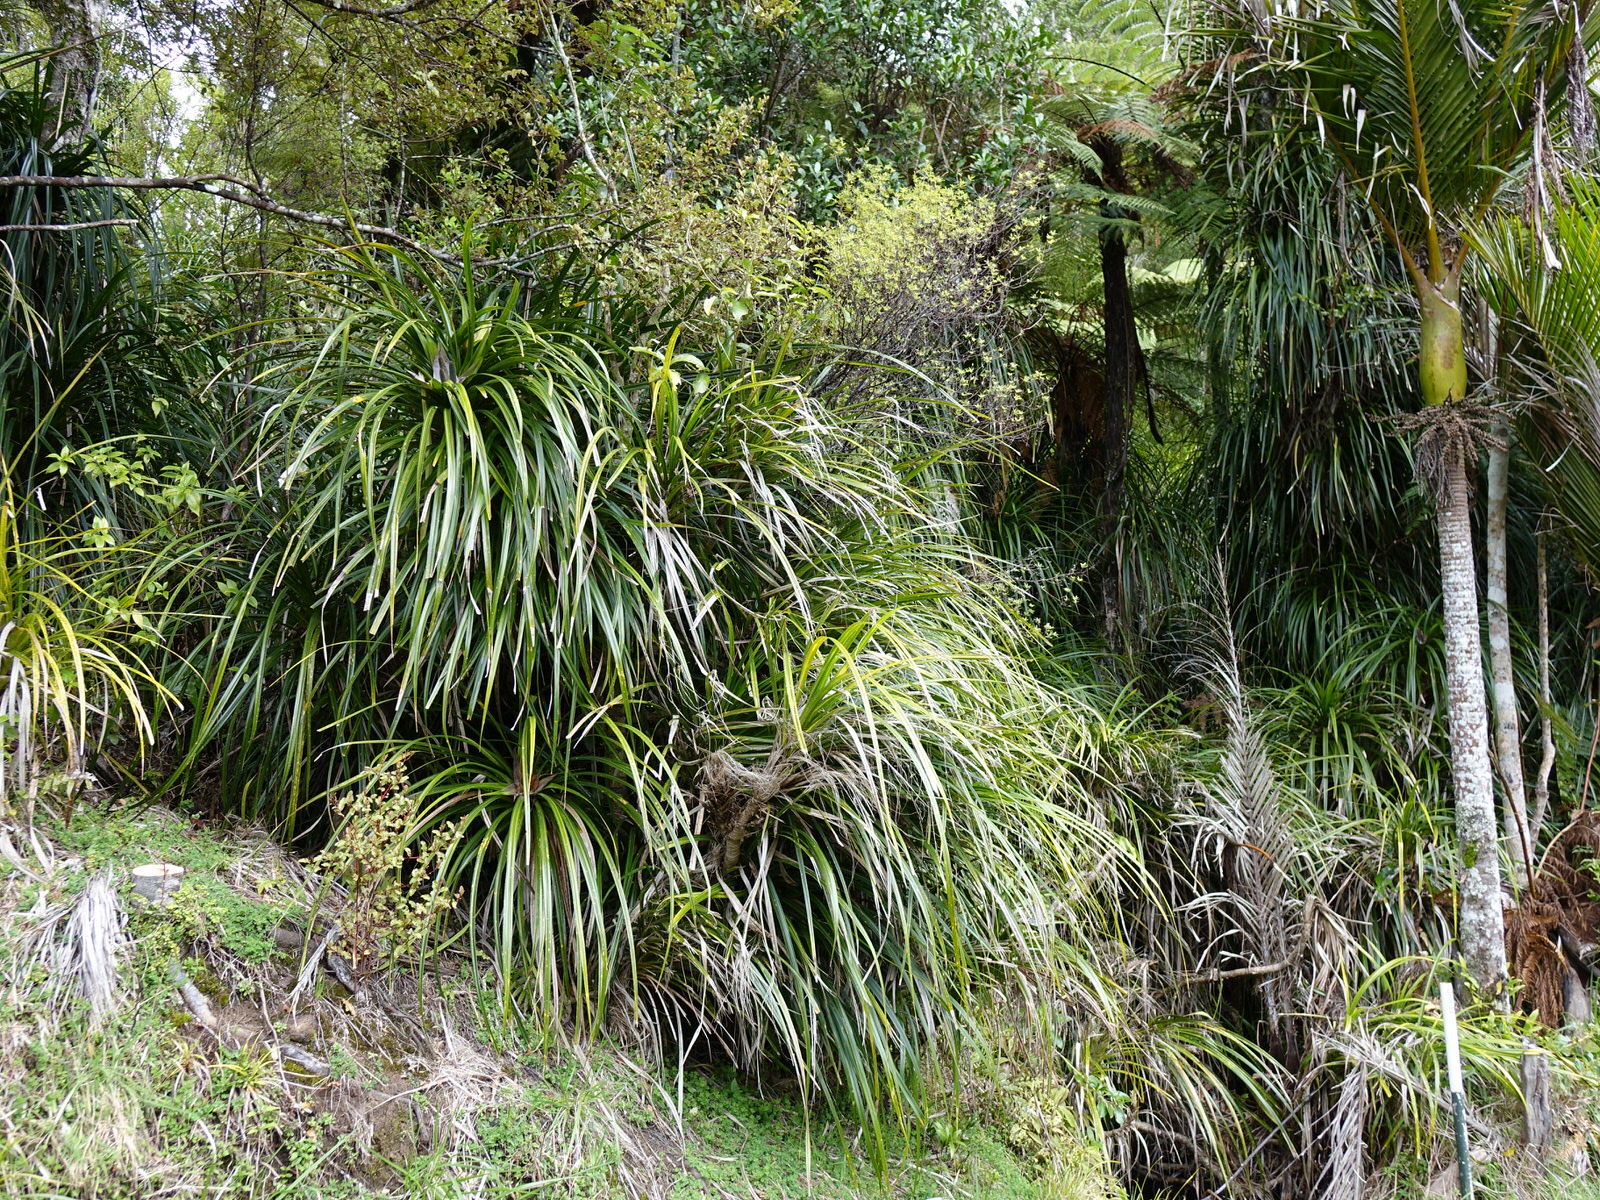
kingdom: Plantae
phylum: Tracheophyta
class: Liliopsida
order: Pandanales
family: Pandanaceae
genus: Freycinetia
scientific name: Freycinetia banksii
